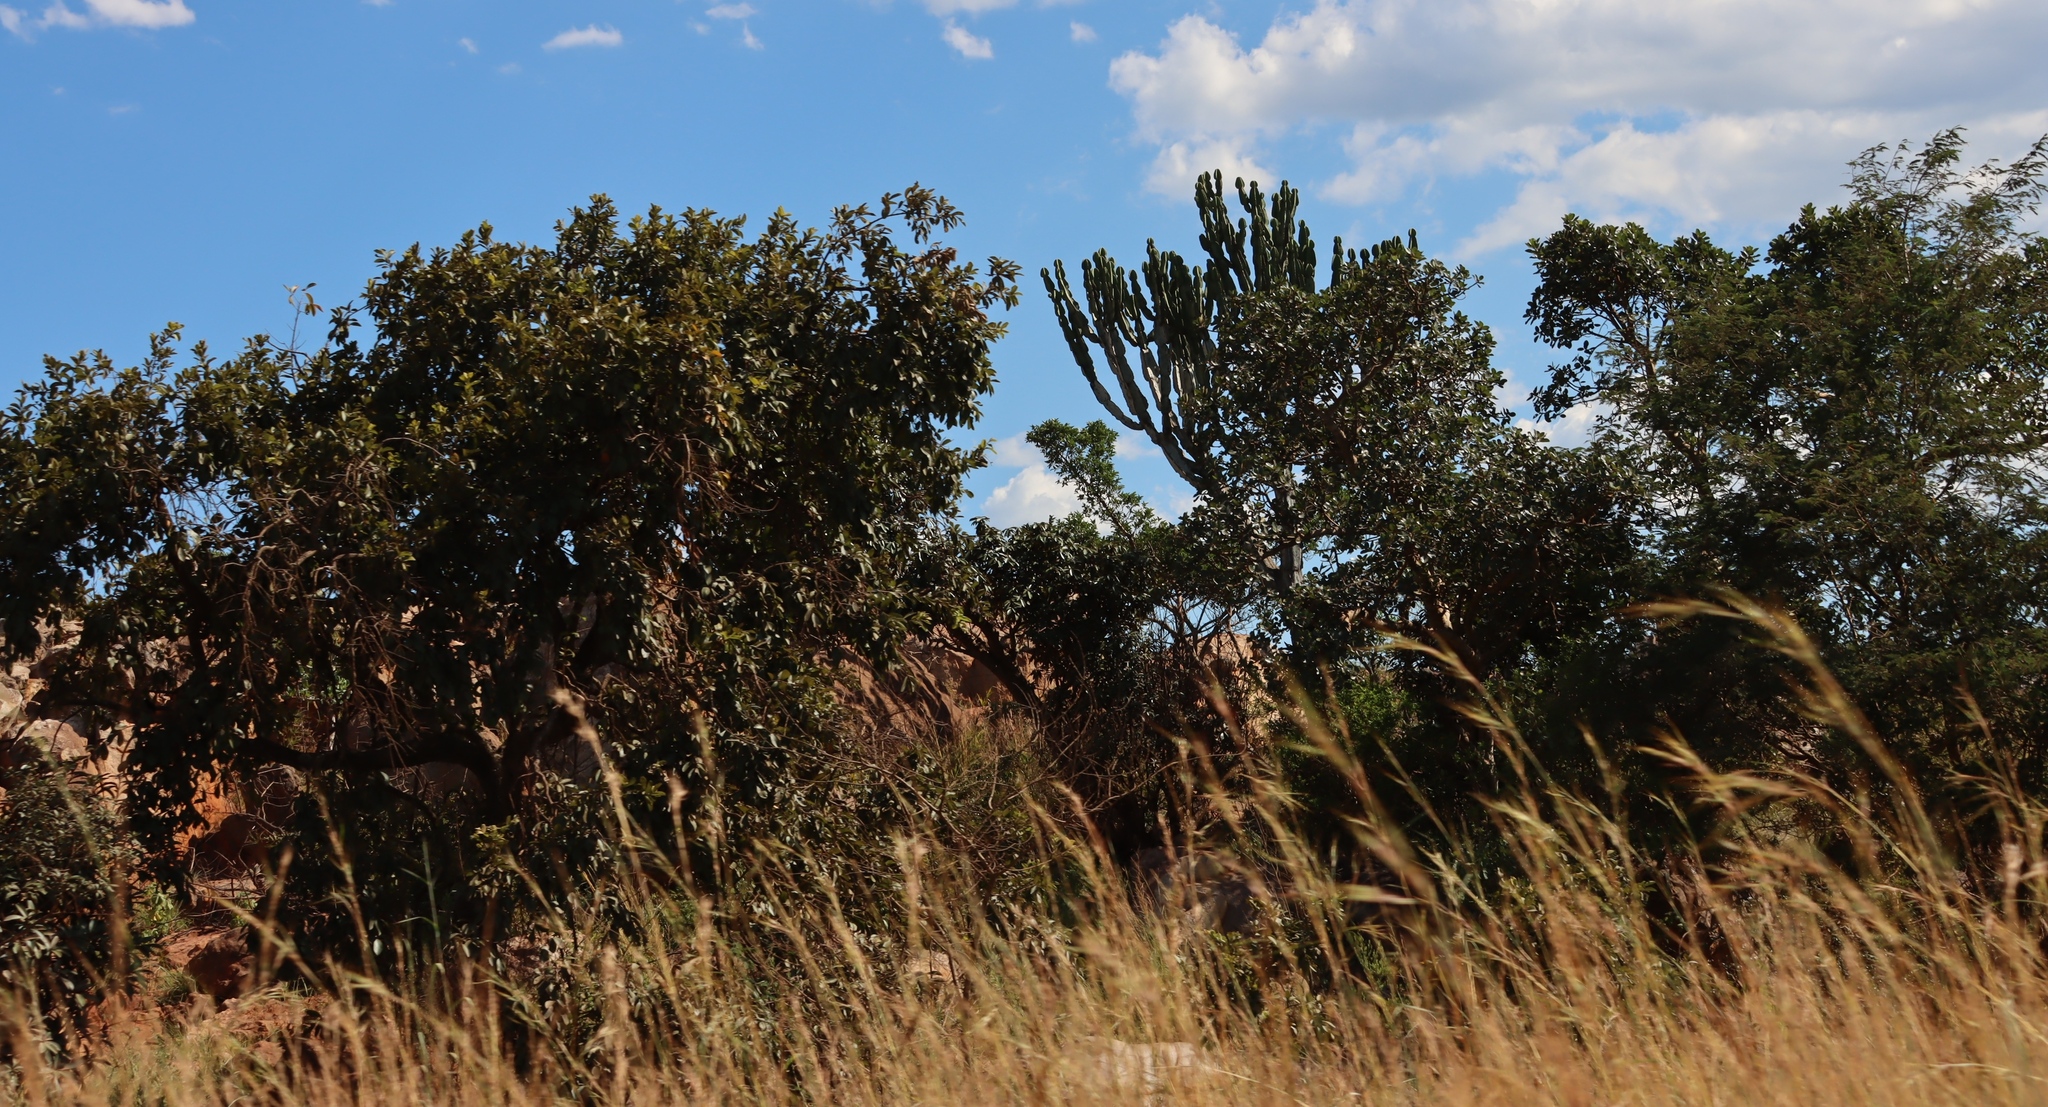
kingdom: Plantae
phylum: Tracheophyta
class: Magnoliopsida
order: Malpighiales
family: Euphorbiaceae
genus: Euphorbia
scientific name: Euphorbia ingens
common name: Cactus spurge
